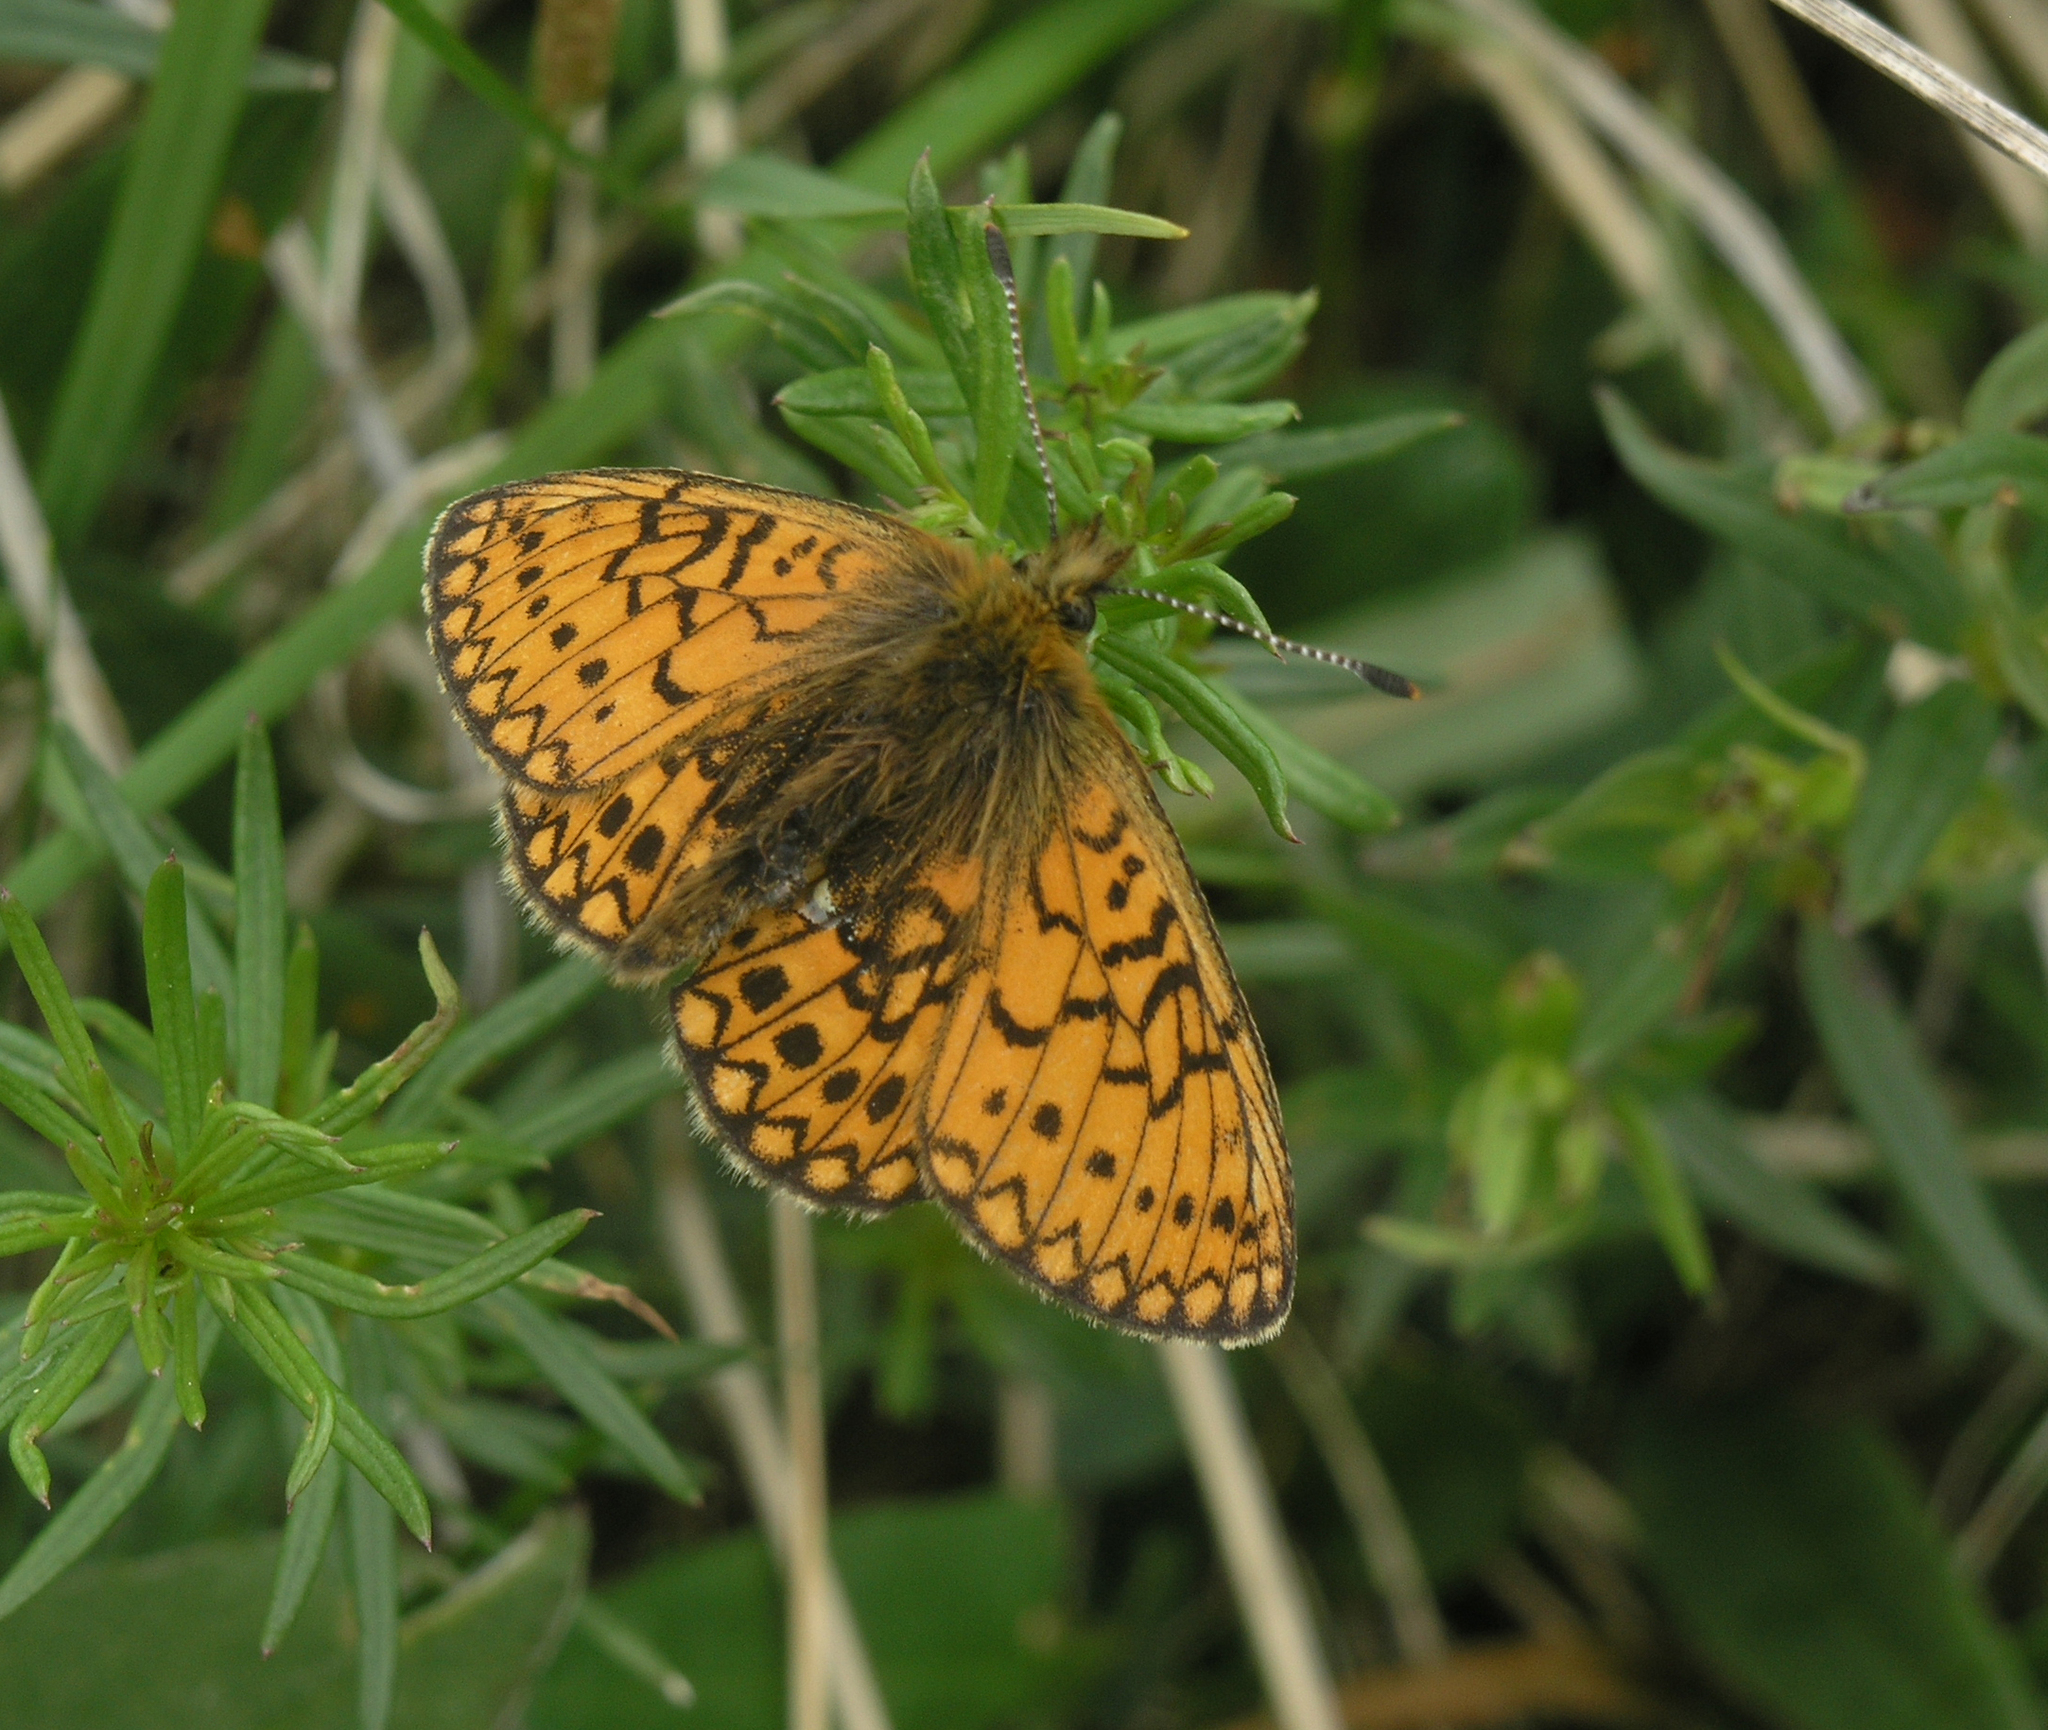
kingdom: Animalia
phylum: Arthropoda
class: Insecta
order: Lepidoptera
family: Nymphalidae
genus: Boloria
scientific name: Boloria eunomia
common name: Bog fritillary
